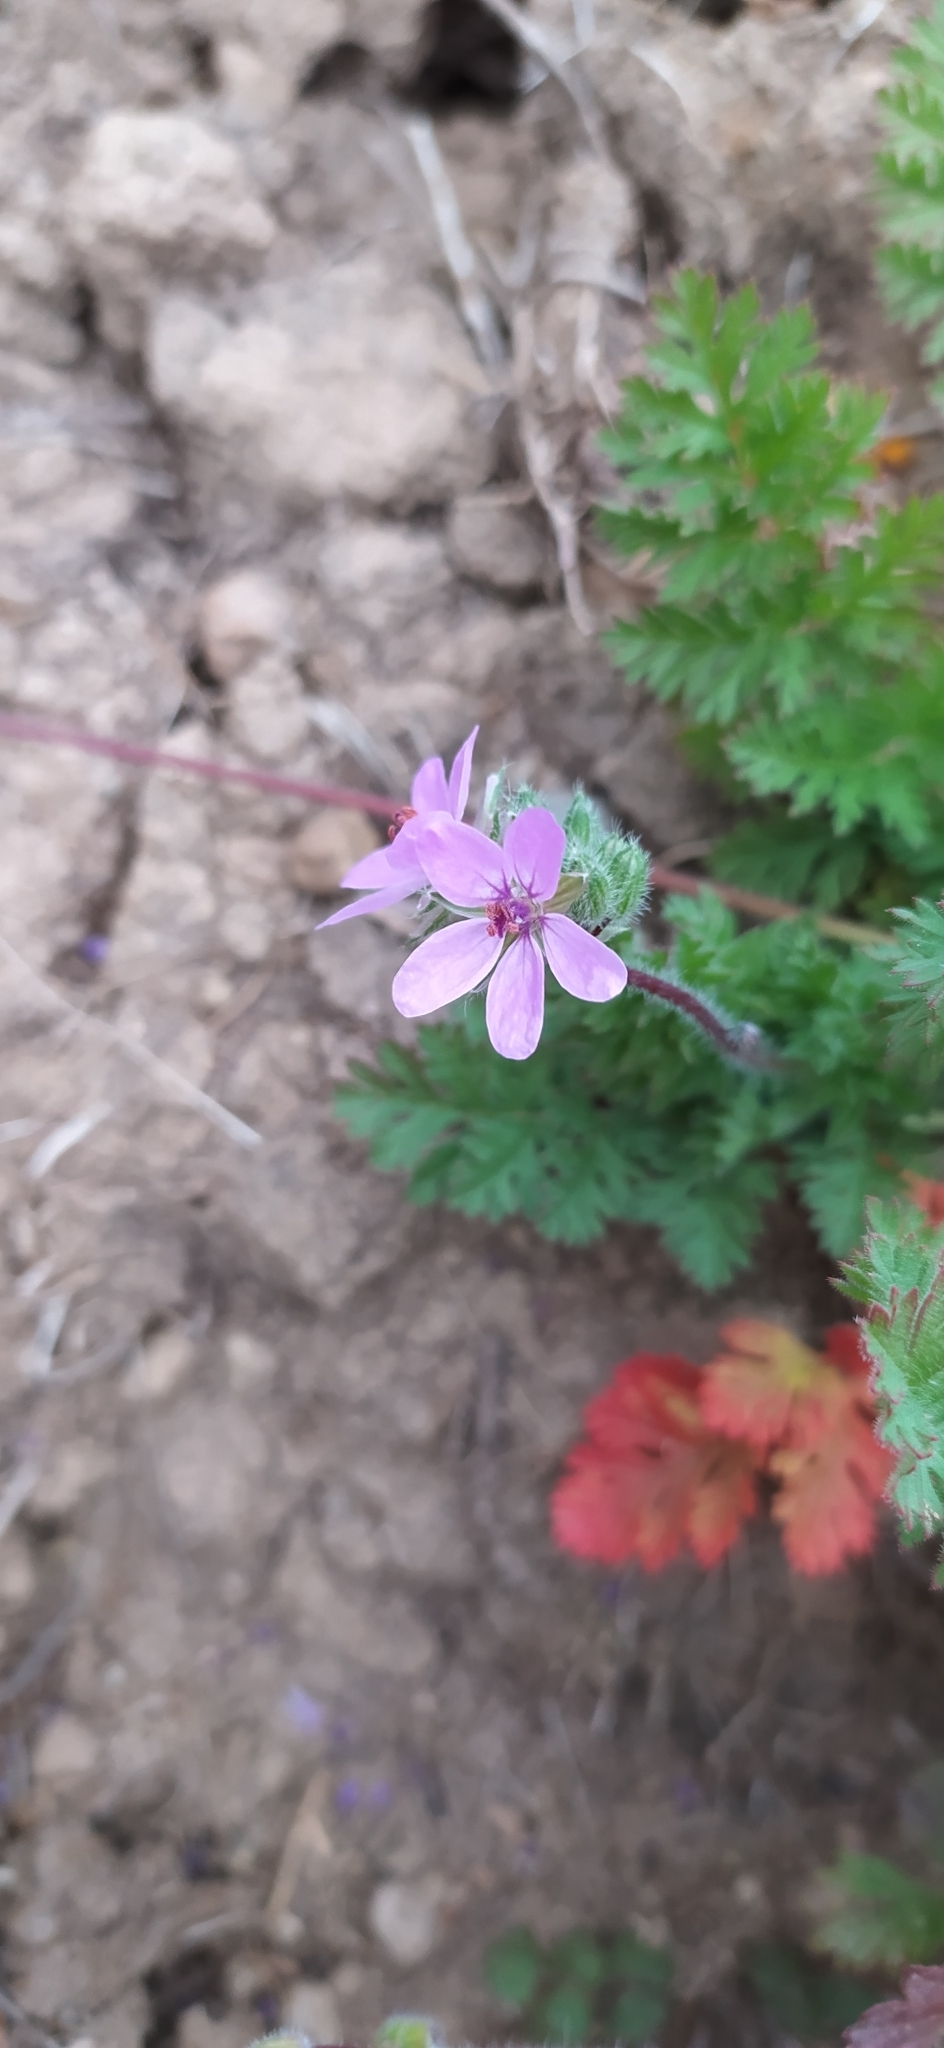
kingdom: Plantae
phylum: Tracheophyta
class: Magnoliopsida
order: Geraniales
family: Geraniaceae
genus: Erodium
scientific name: Erodium cicutarium
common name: Common stork's-bill
